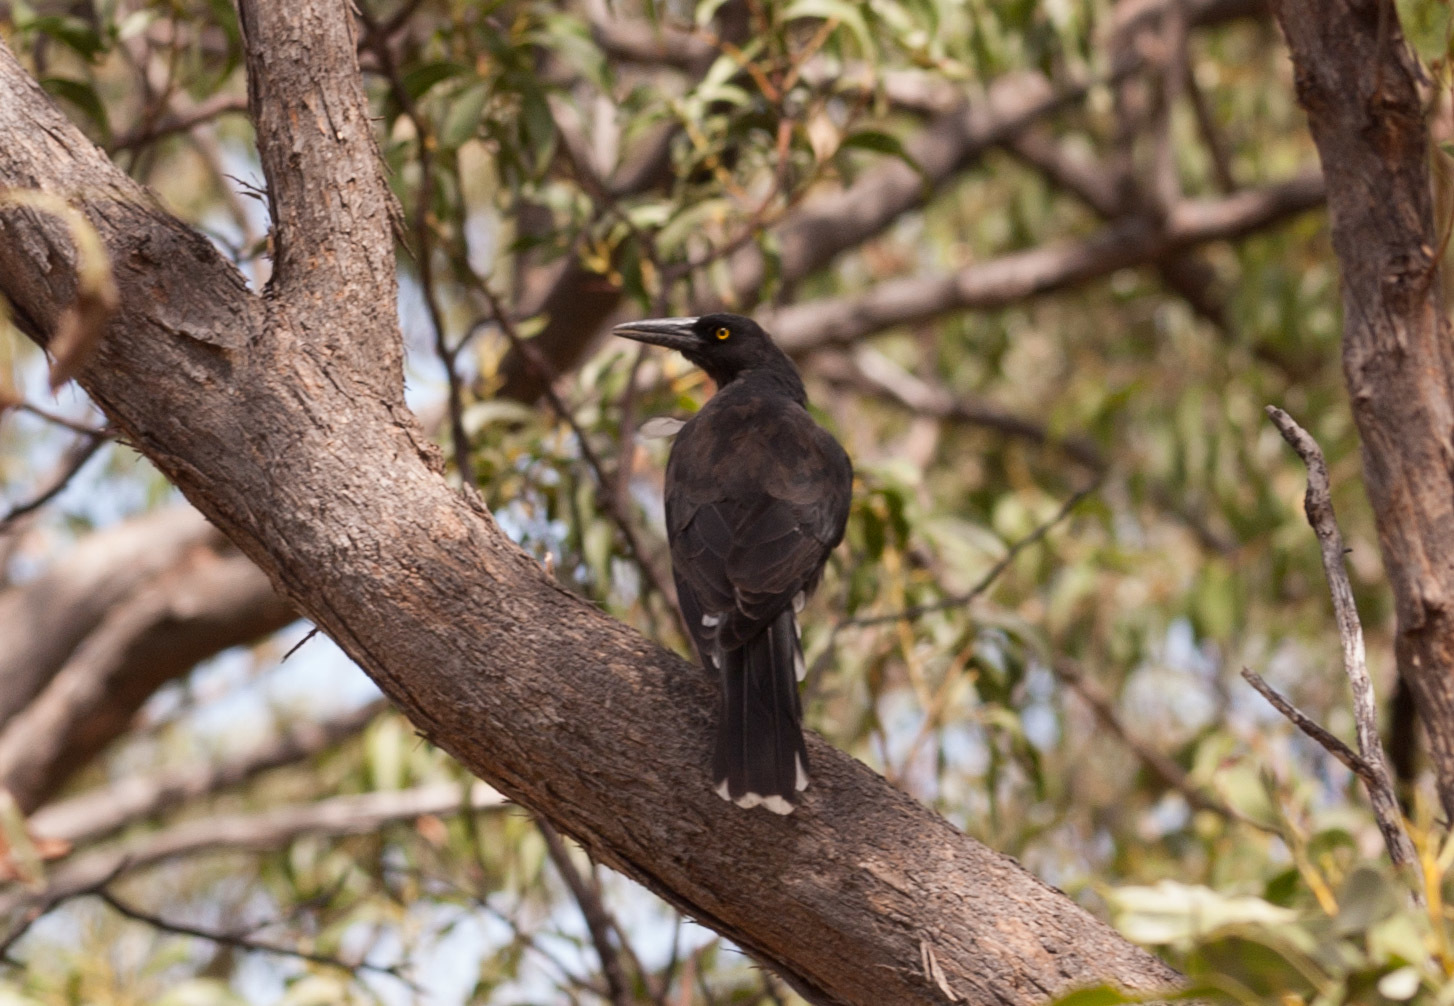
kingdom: Animalia
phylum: Chordata
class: Aves
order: Passeriformes
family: Cracticidae
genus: Strepera
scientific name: Strepera versicolor
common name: Grey currawong
